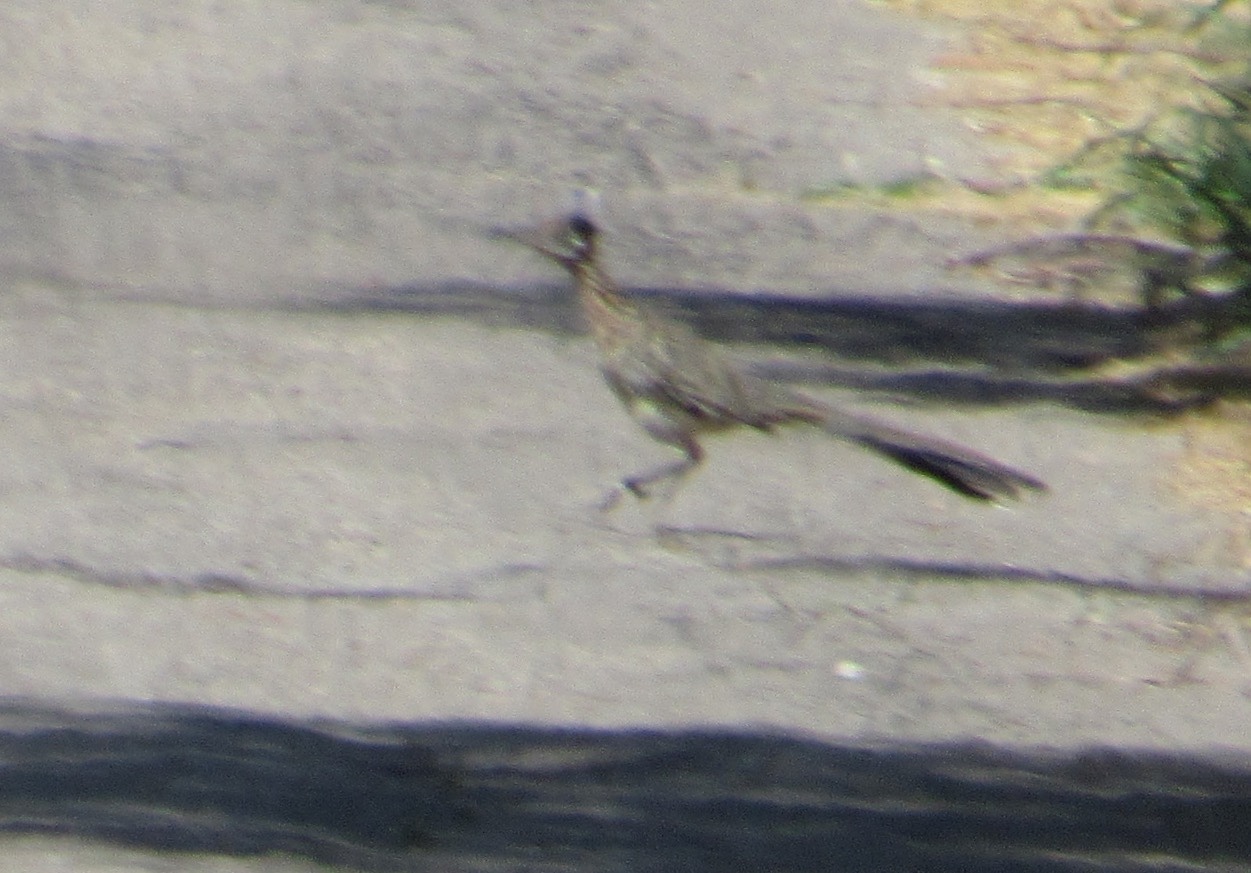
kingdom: Animalia
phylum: Chordata
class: Aves
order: Cuculiformes
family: Cuculidae
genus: Geococcyx
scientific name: Geococcyx californianus
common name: Greater roadrunner
